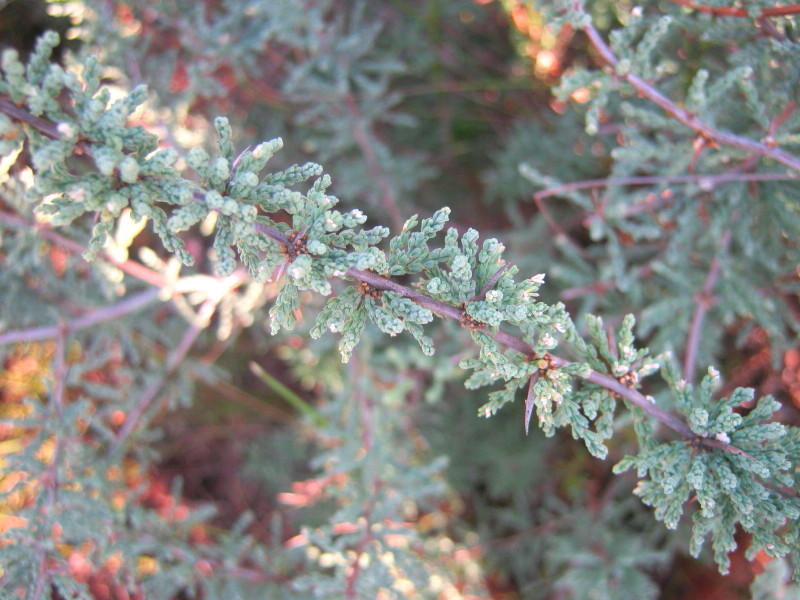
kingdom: Plantae
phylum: Tracheophyta
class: Liliopsida
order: Asparagales
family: Asparagaceae
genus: Asparagus
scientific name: Asparagus capensis
